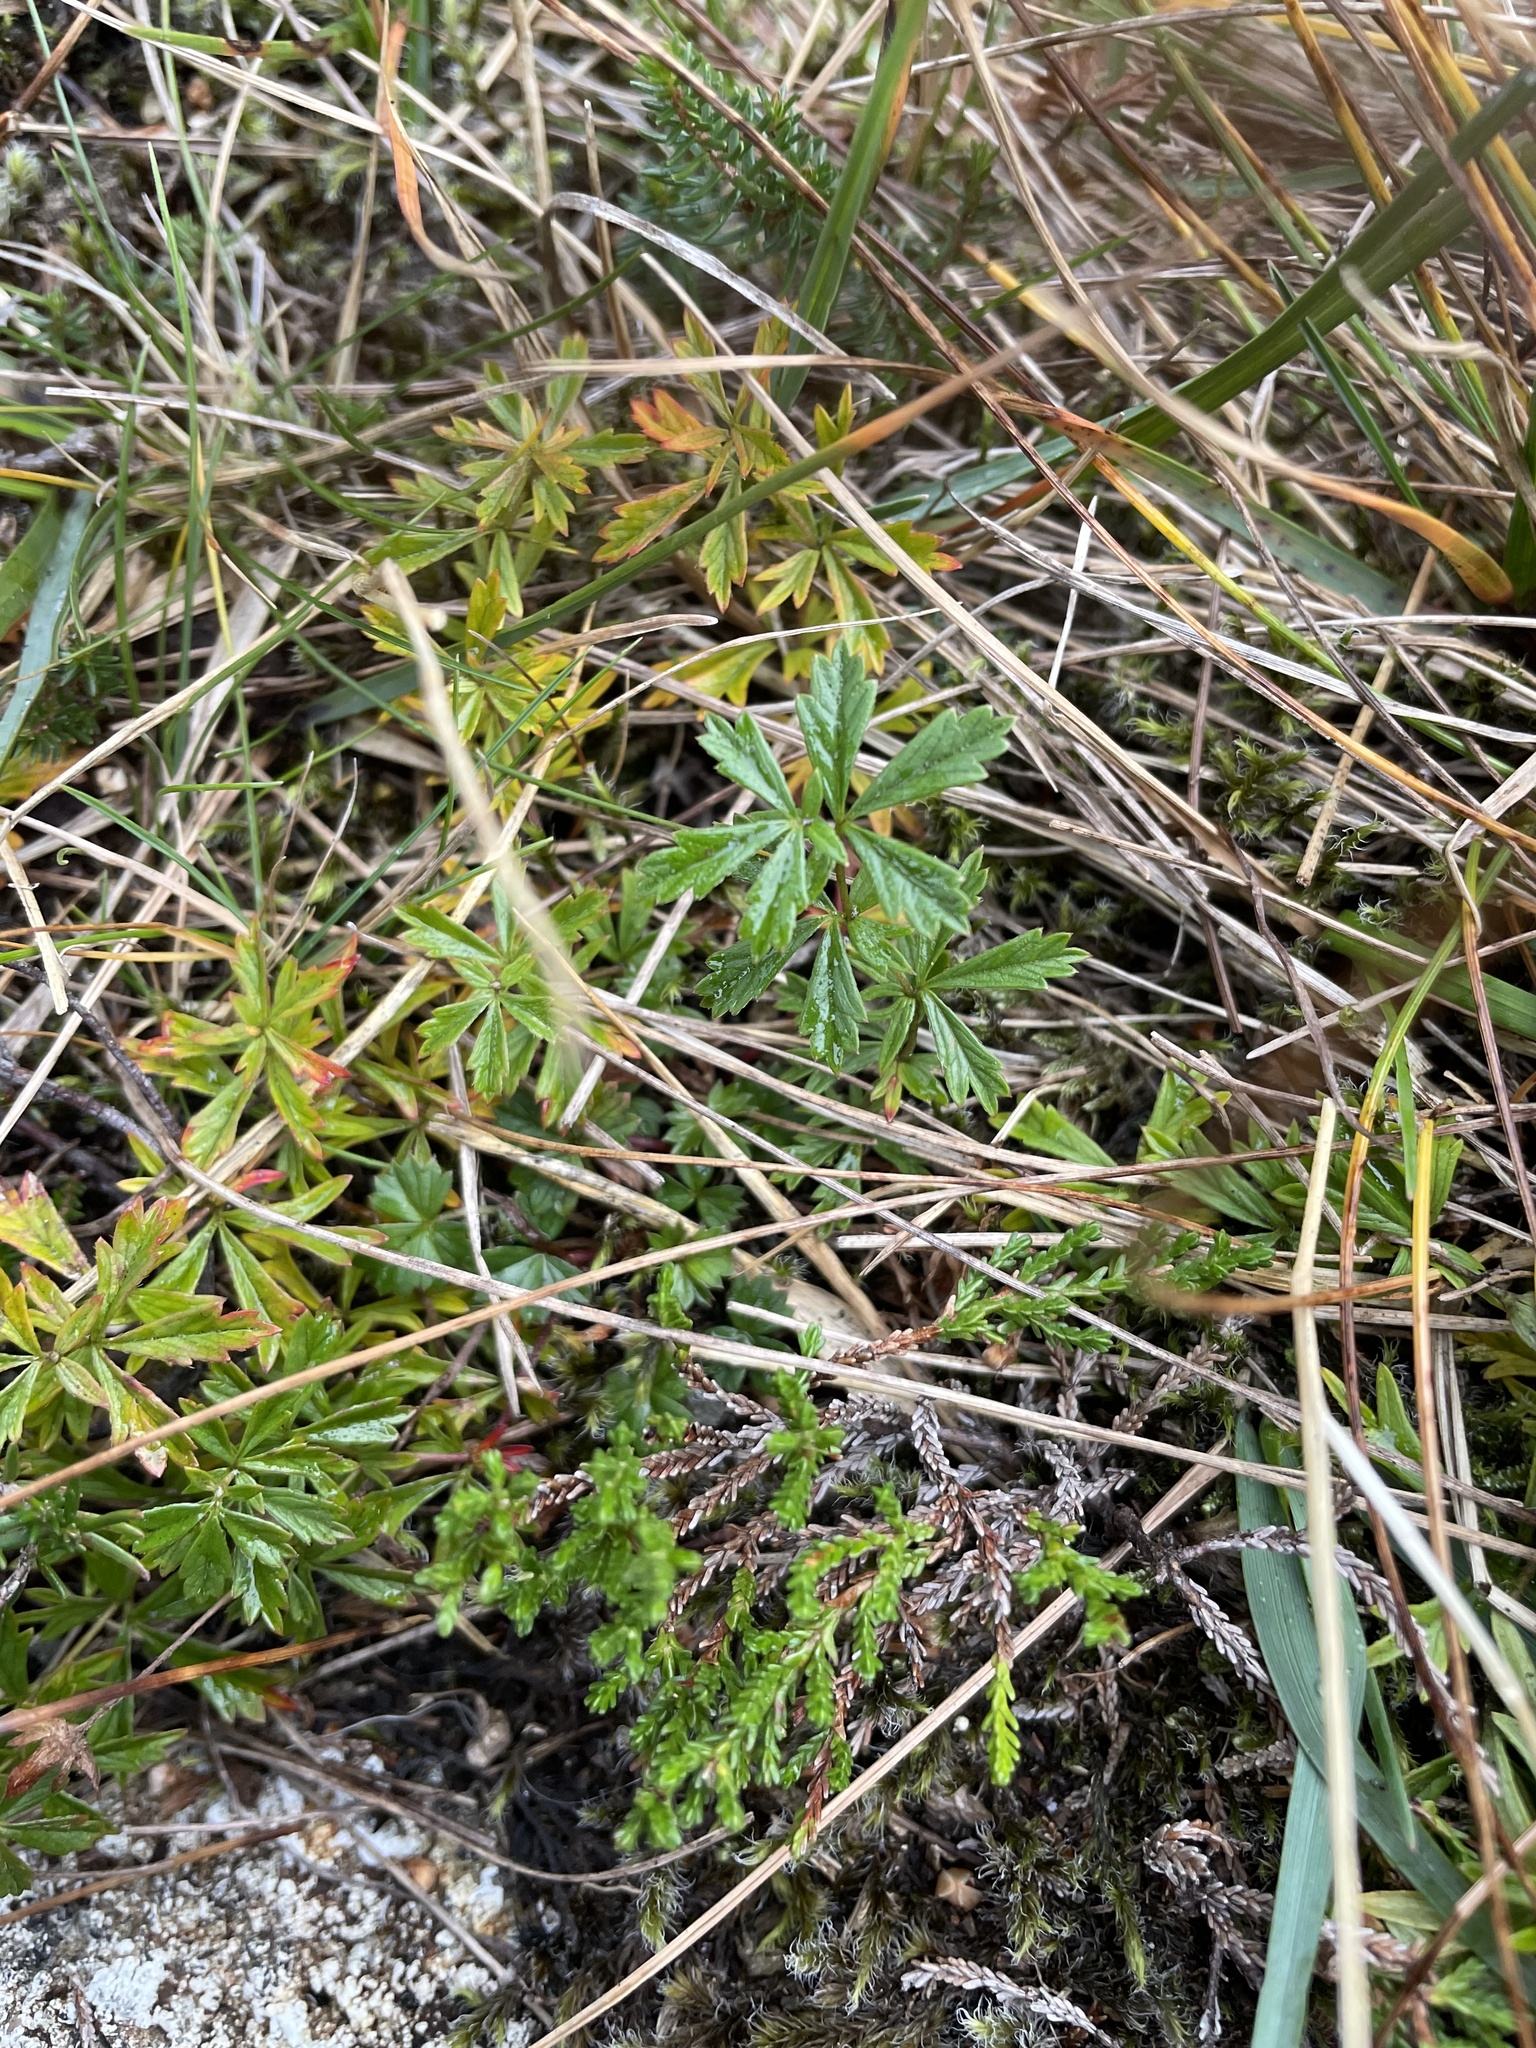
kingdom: Plantae
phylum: Tracheophyta
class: Magnoliopsida
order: Rosales
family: Rosaceae
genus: Potentilla
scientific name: Potentilla erecta
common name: Tormentil
